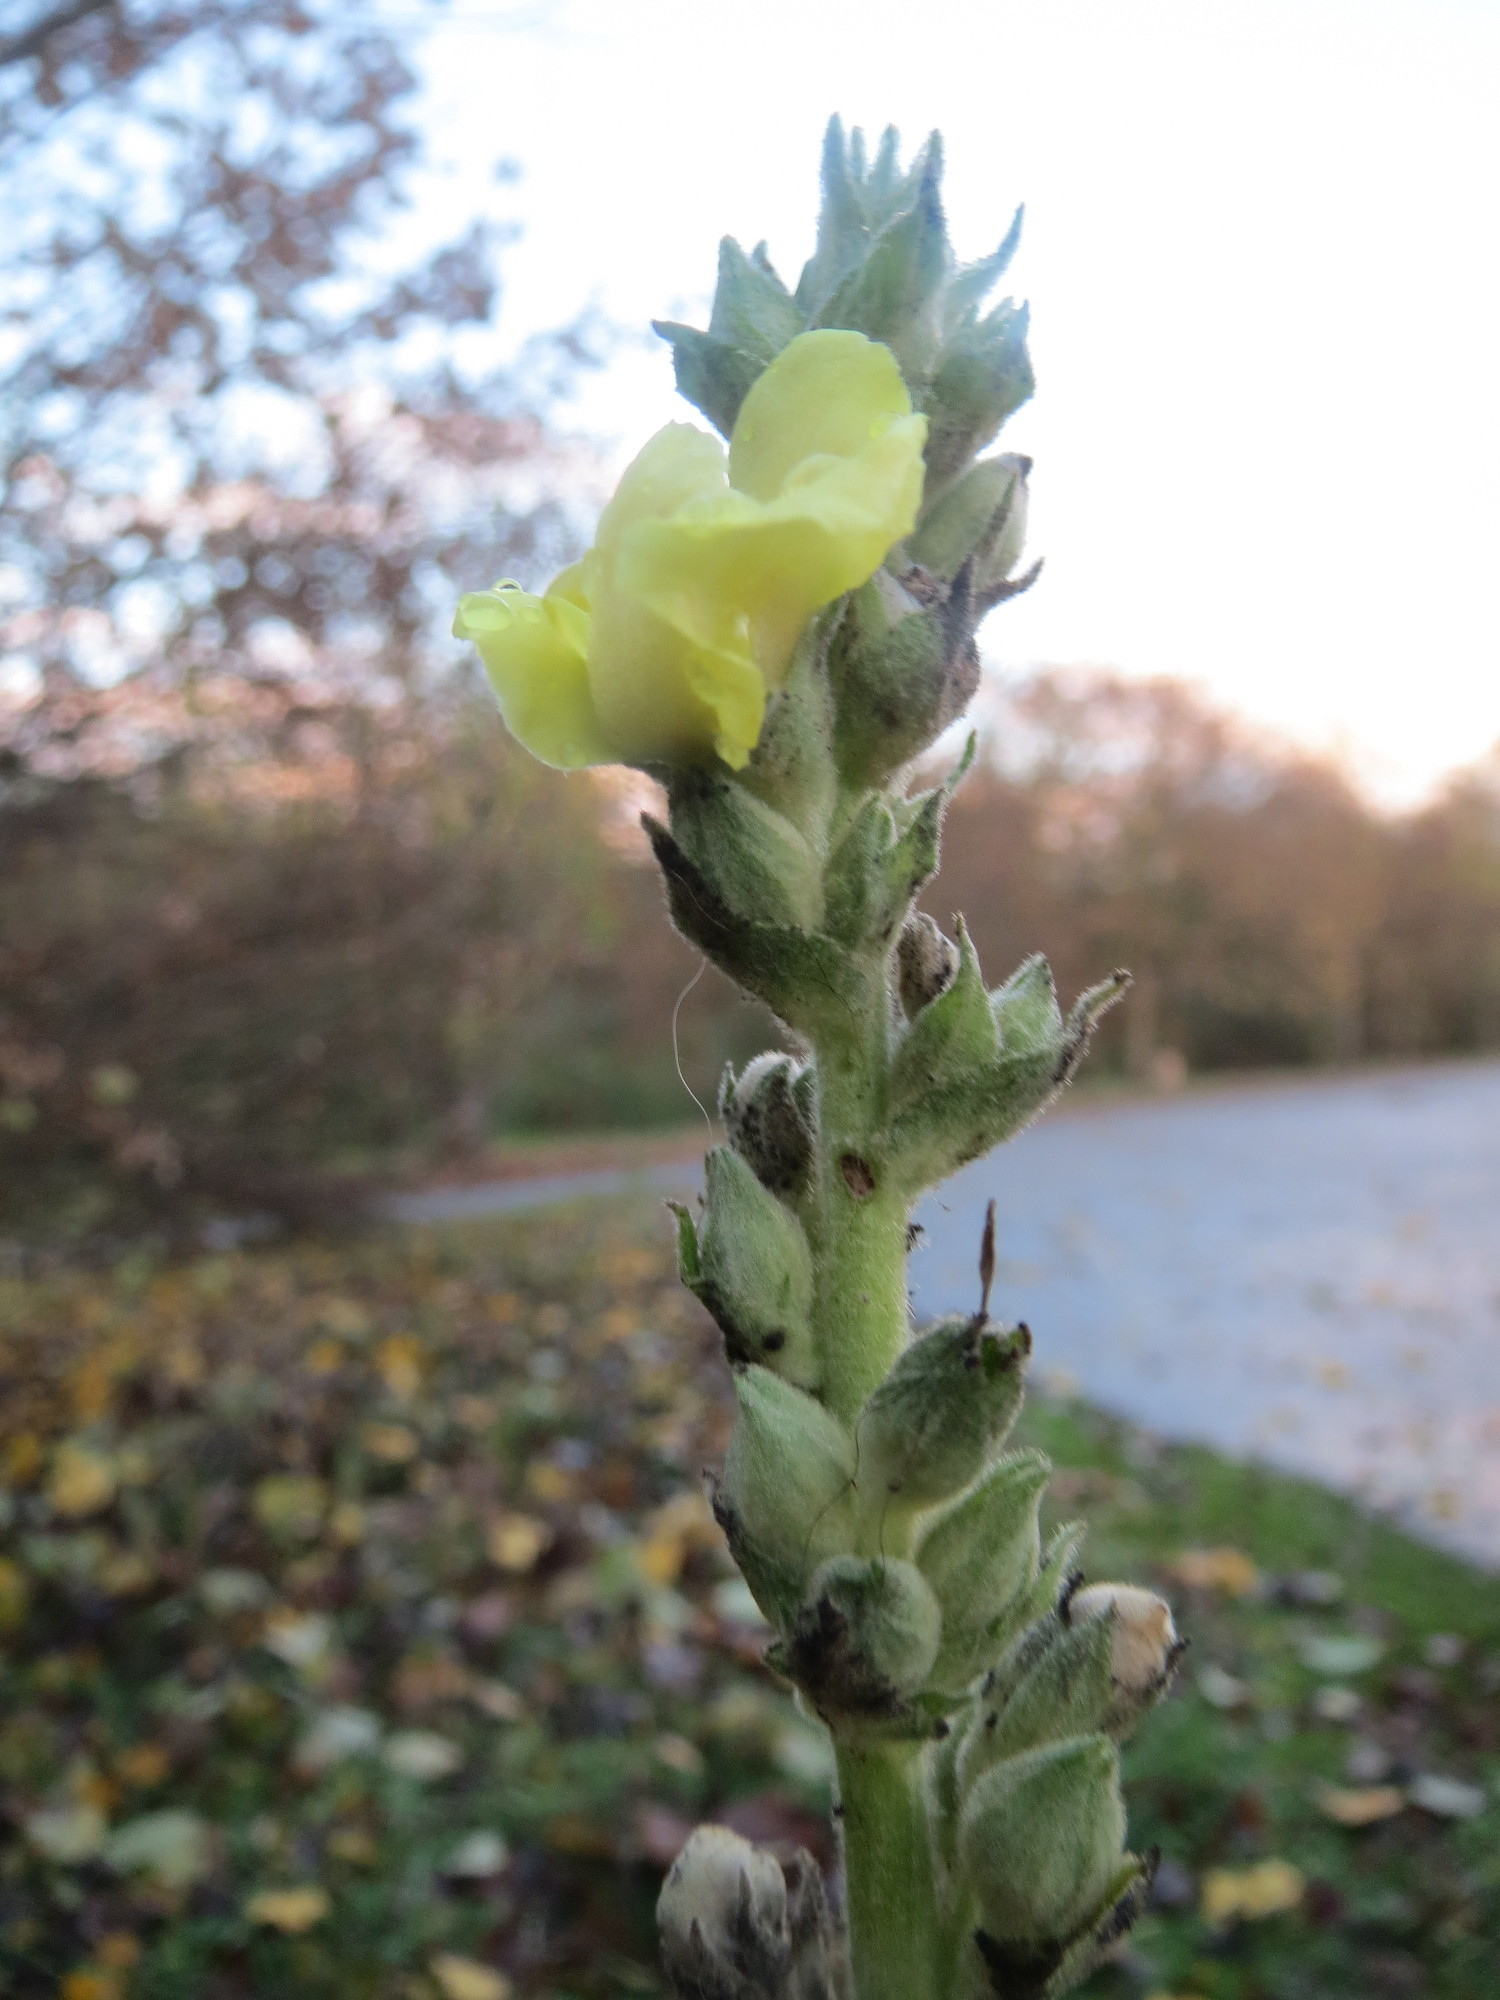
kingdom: Plantae
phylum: Tracheophyta
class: Magnoliopsida
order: Lamiales
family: Scrophulariaceae
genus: Verbascum
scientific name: Verbascum thapsus
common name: Common mullein
